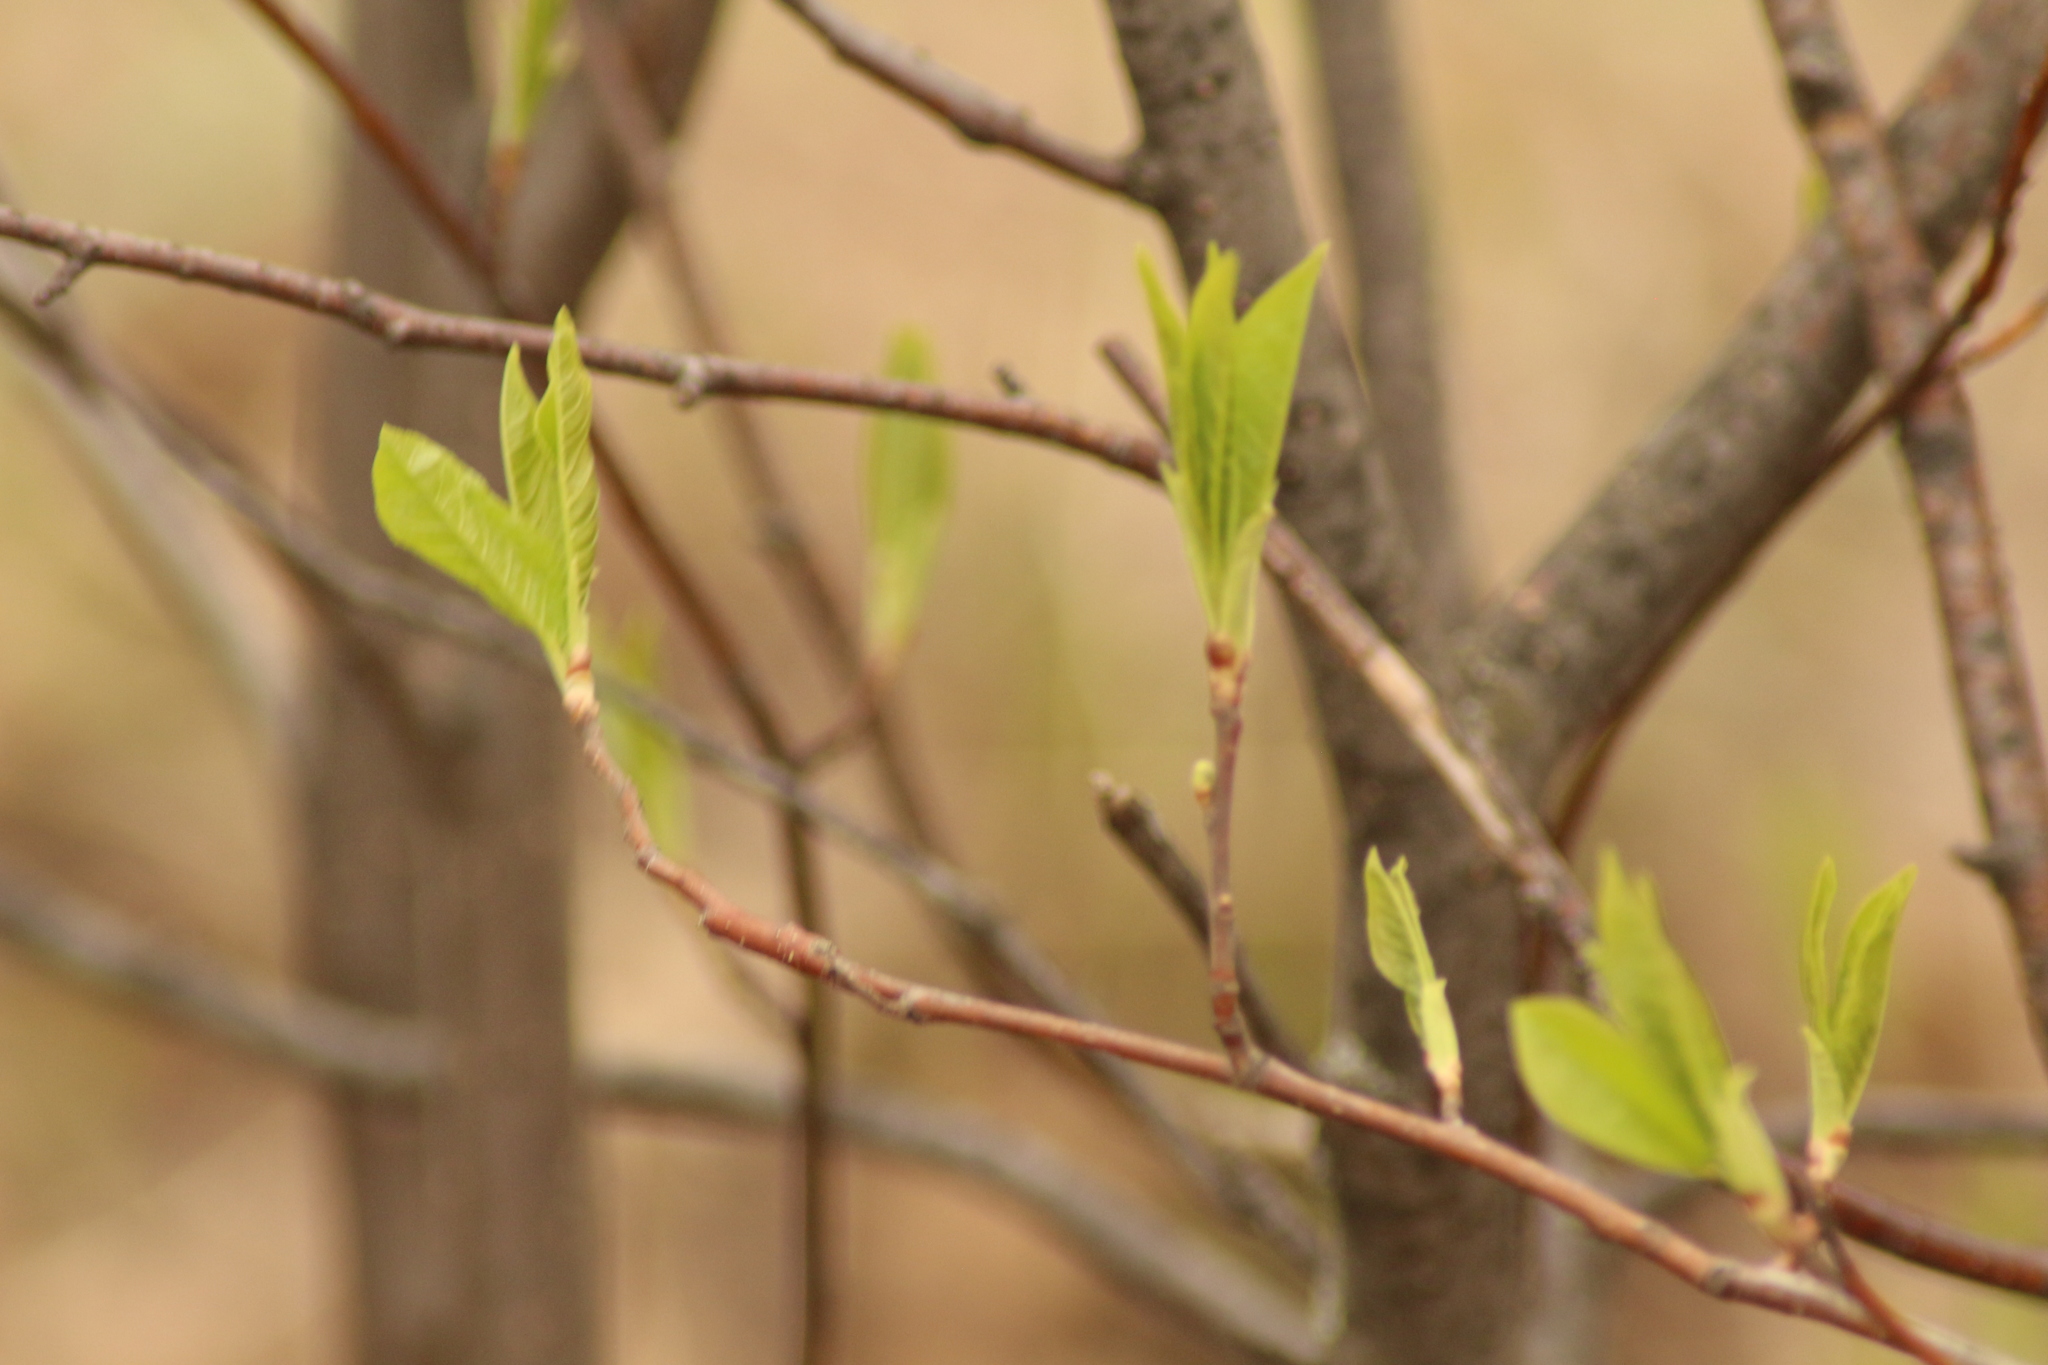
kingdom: Plantae
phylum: Tracheophyta
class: Magnoliopsida
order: Rosales
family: Rosaceae
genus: Prunus
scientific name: Prunus padus
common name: Bird cherry
